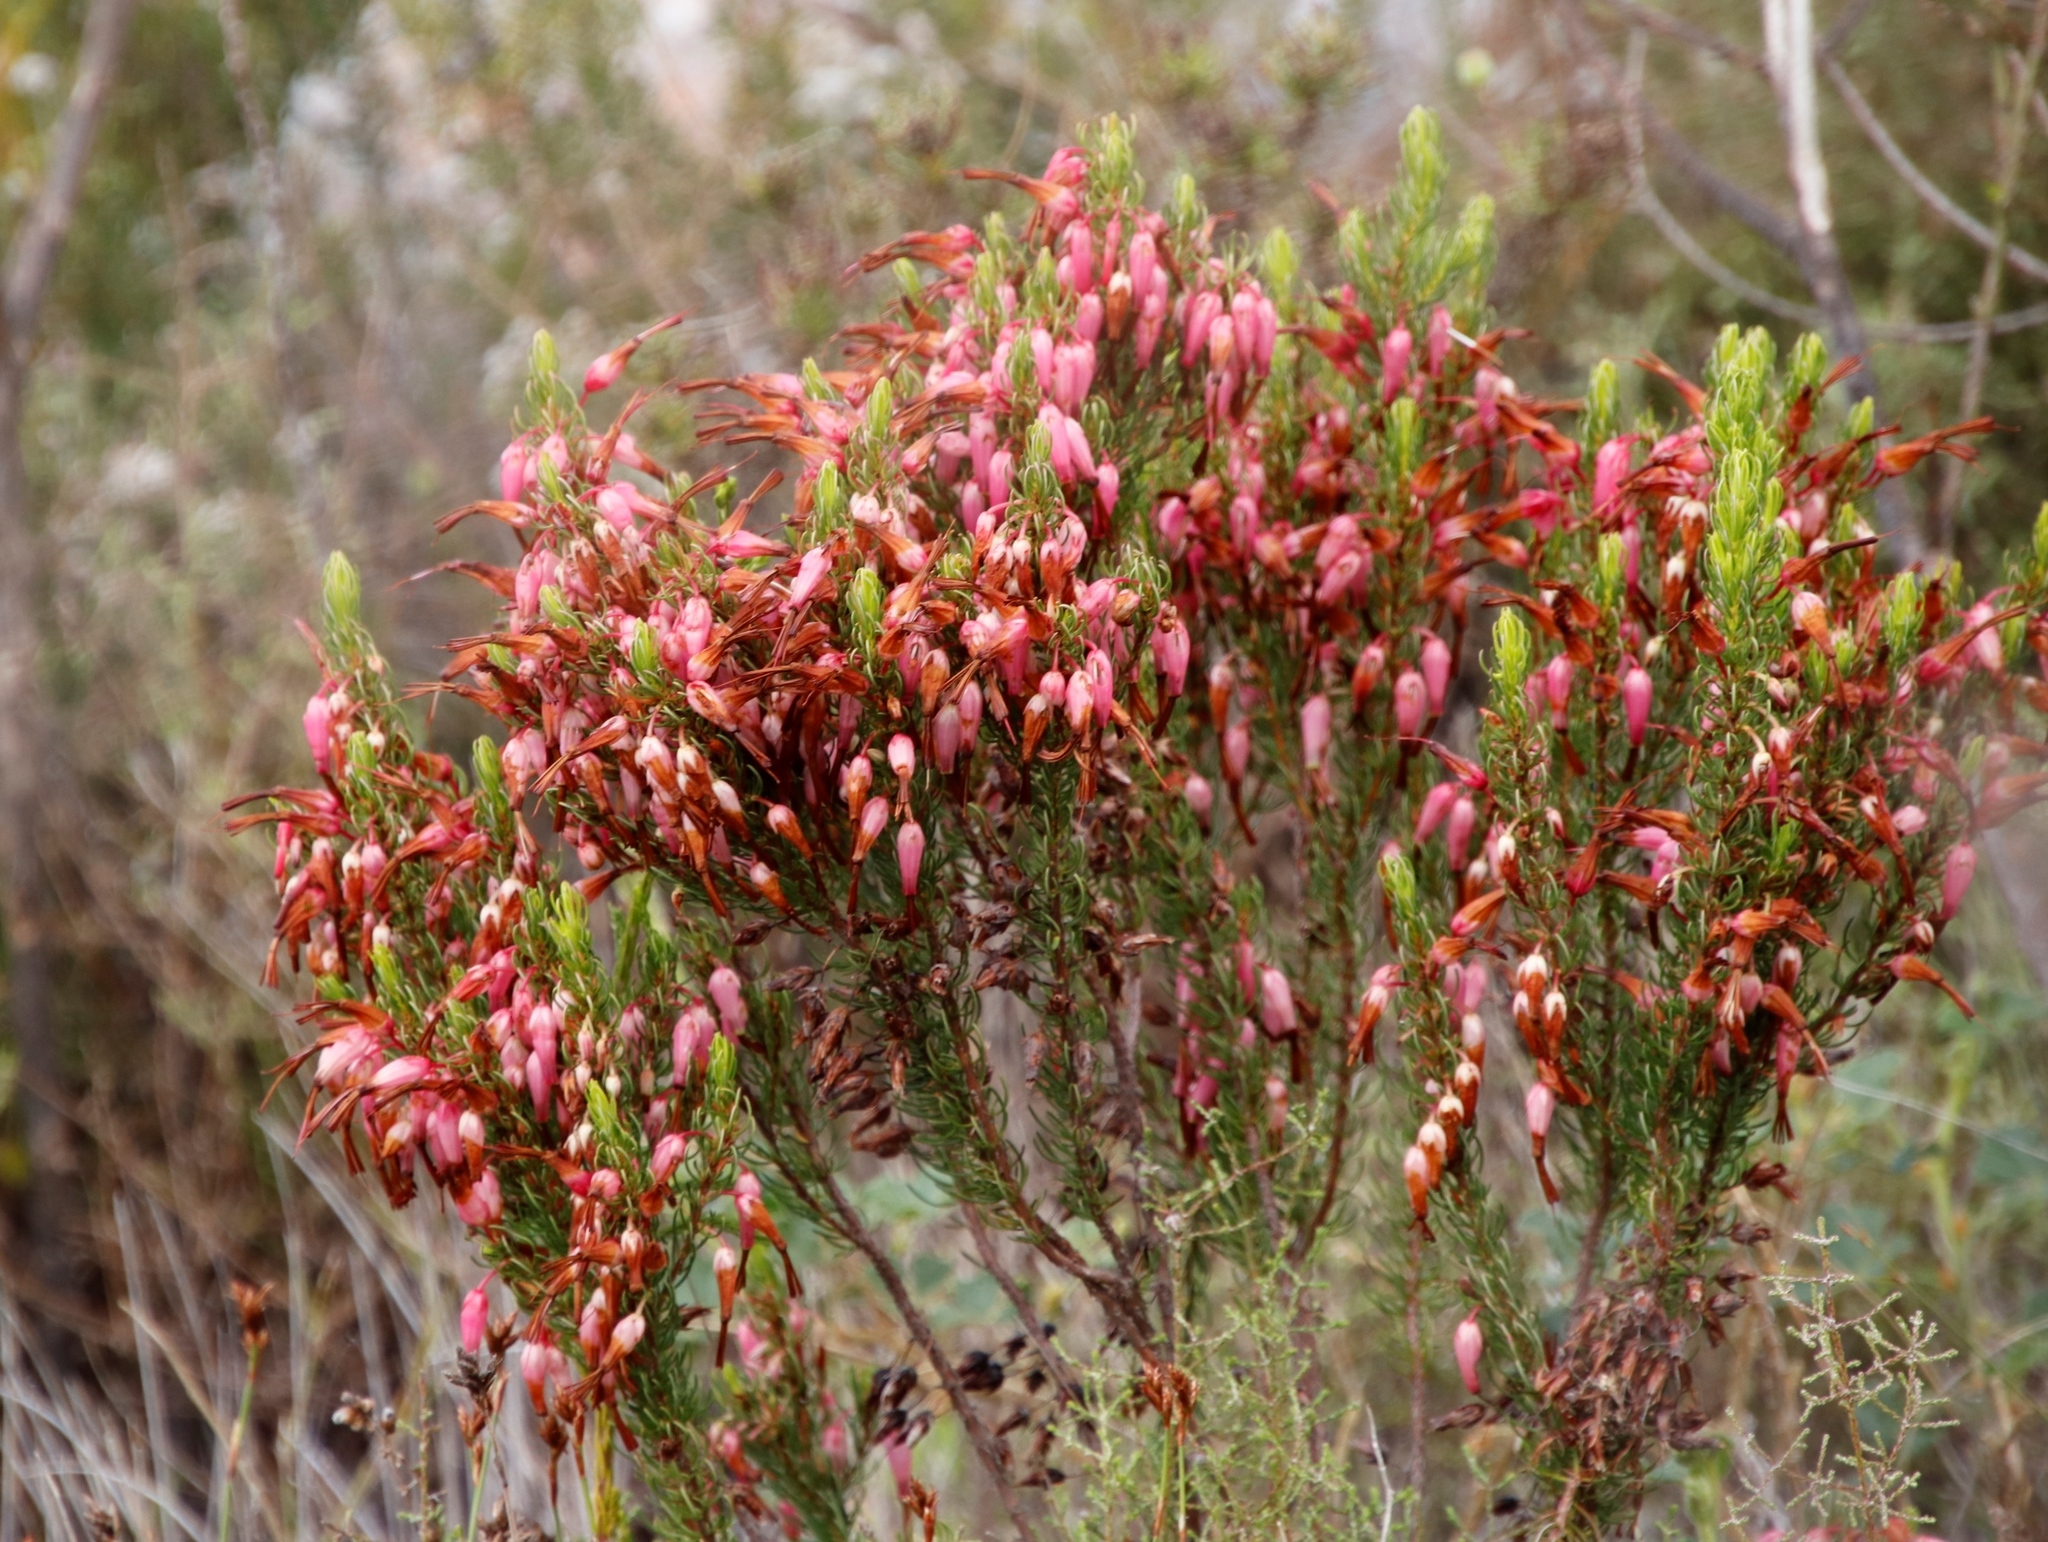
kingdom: Plantae
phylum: Tracheophyta
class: Magnoliopsida
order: Ericales
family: Ericaceae
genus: Erica
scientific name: Erica plukenetii
